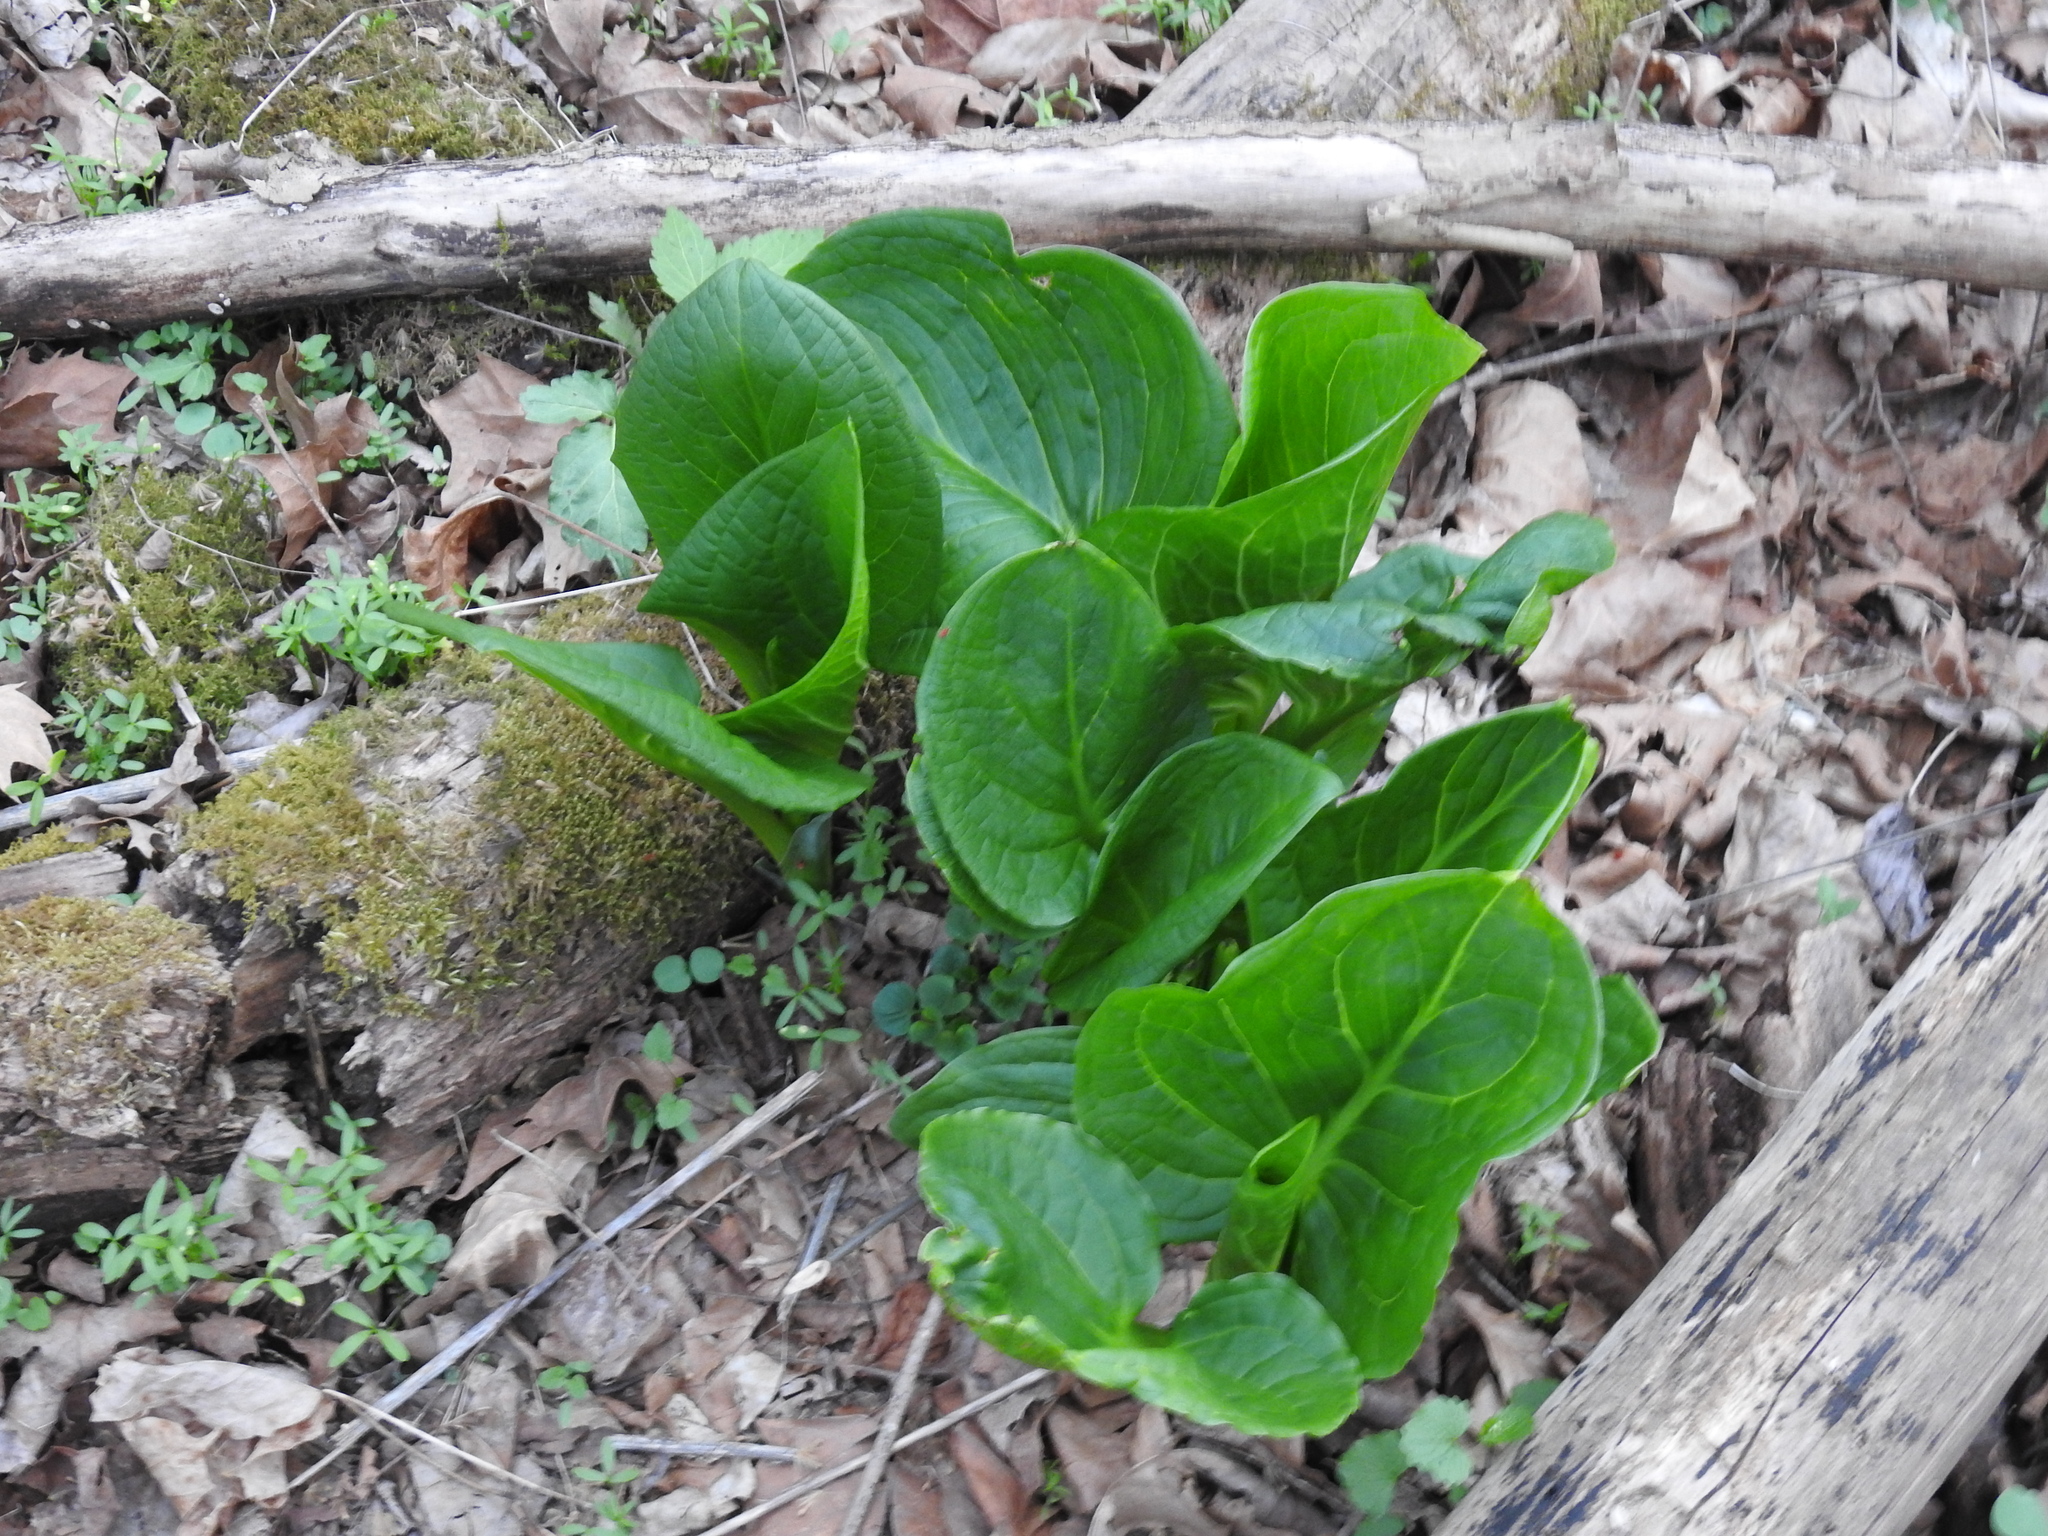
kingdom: Plantae
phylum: Tracheophyta
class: Liliopsida
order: Alismatales
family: Araceae
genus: Symplocarpus
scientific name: Symplocarpus foetidus
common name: Eastern skunk cabbage
